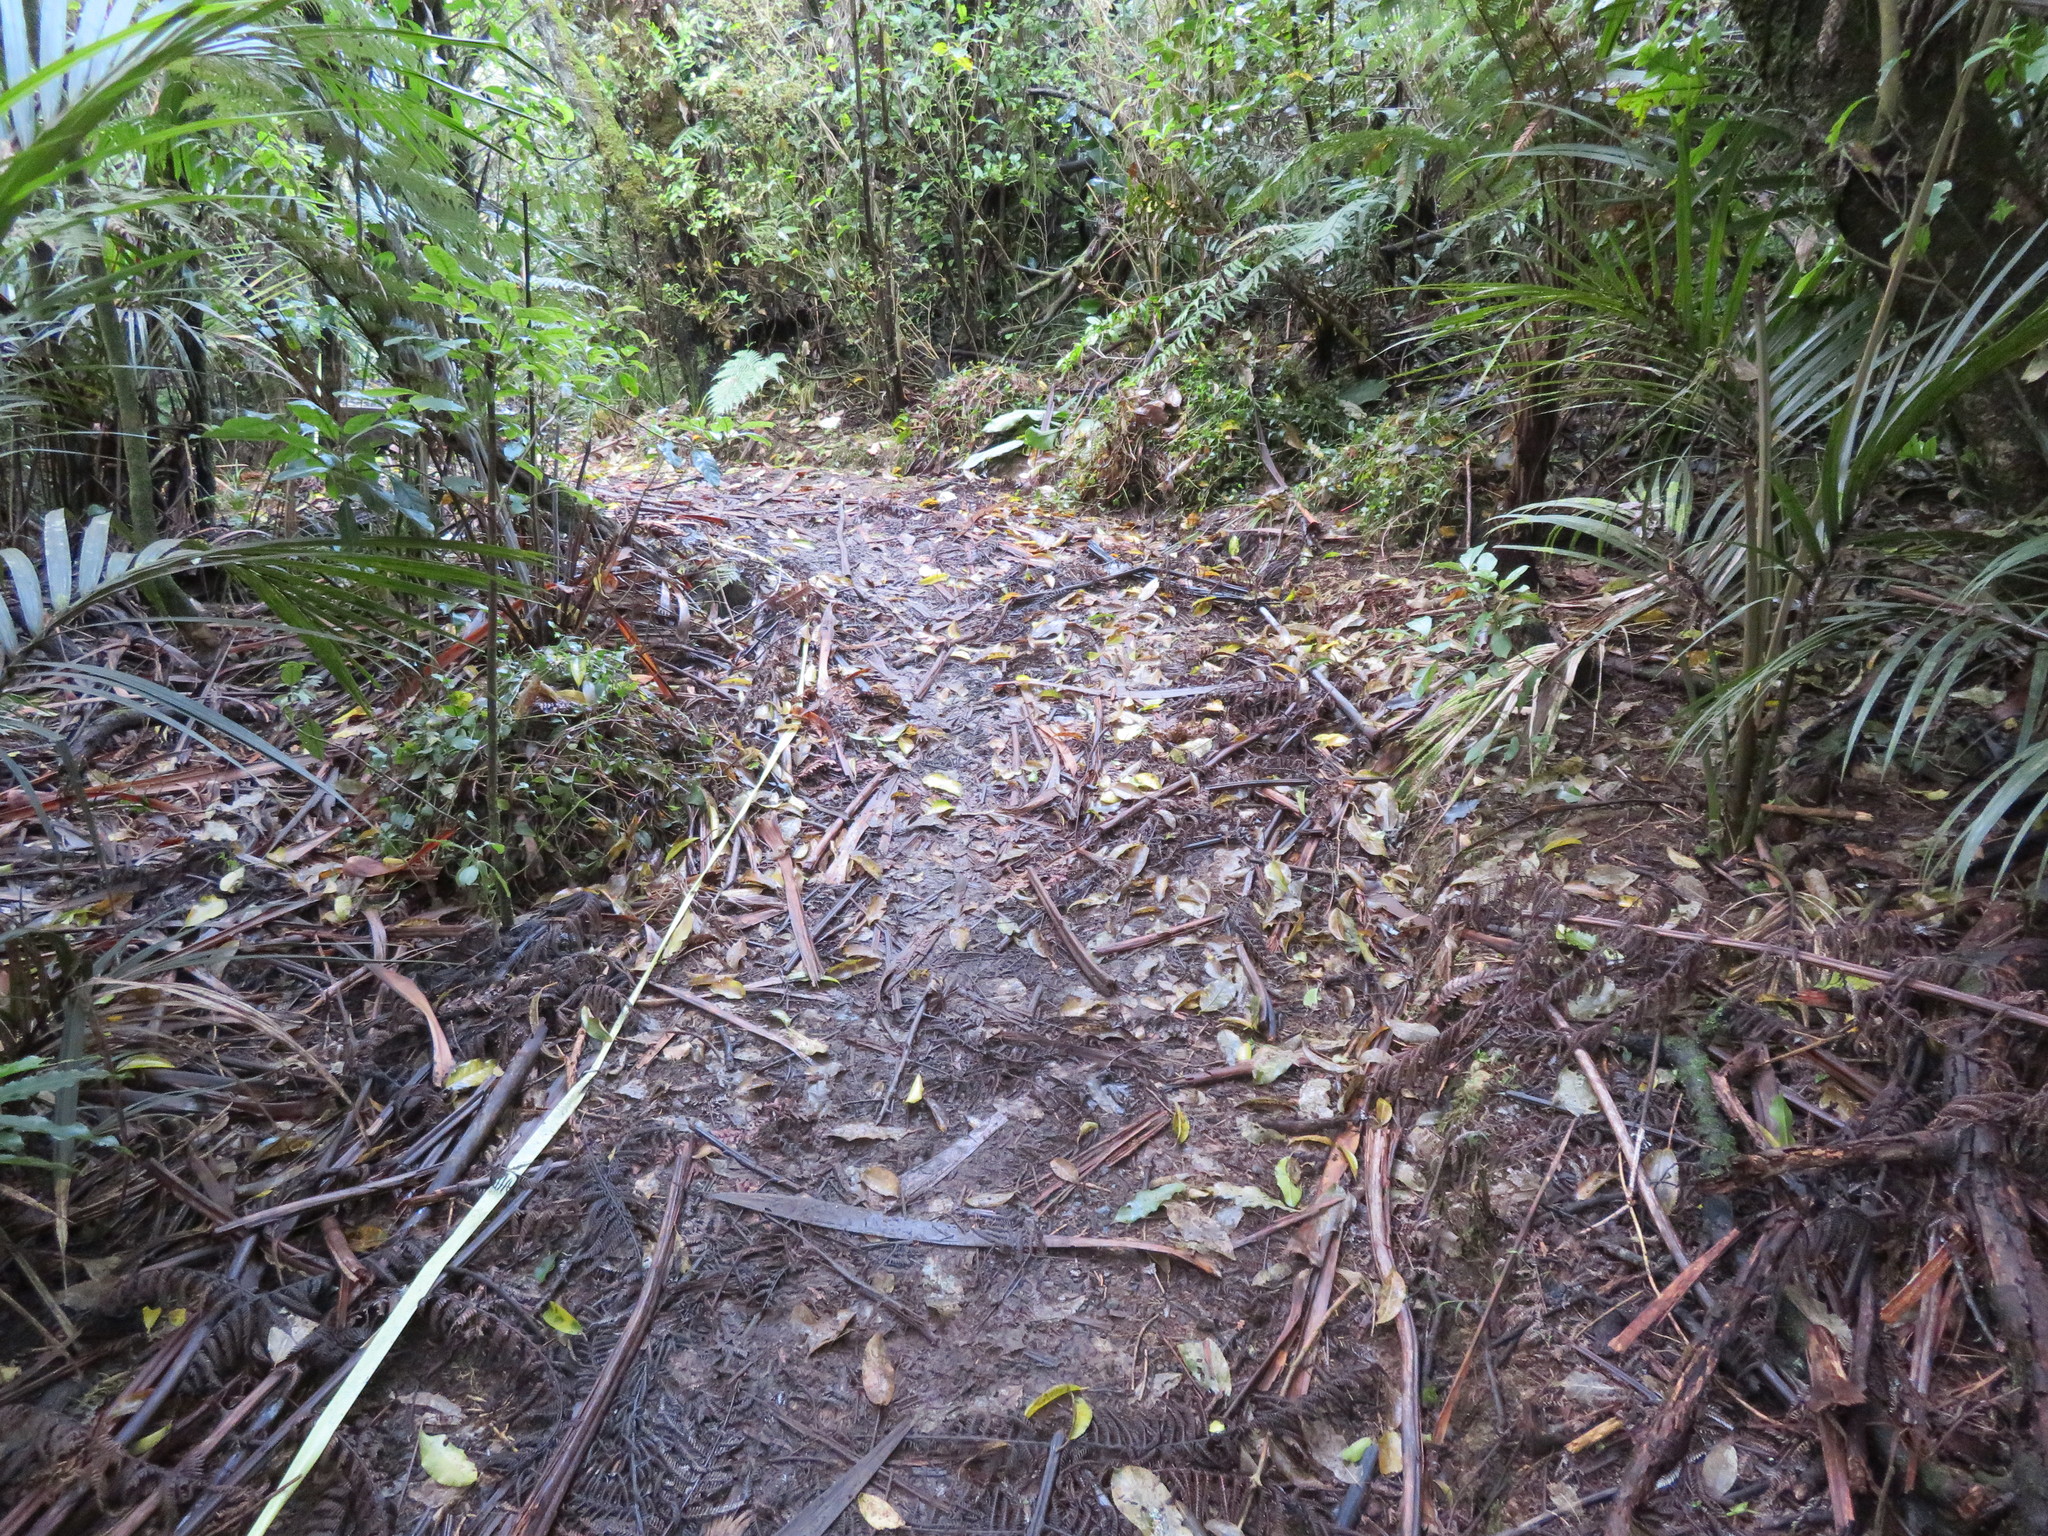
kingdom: Plantae
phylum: Tracheophyta
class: Liliopsida
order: Commelinales
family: Commelinaceae
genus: Tradescantia
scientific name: Tradescantia fluminensis
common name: Wandering-jew
